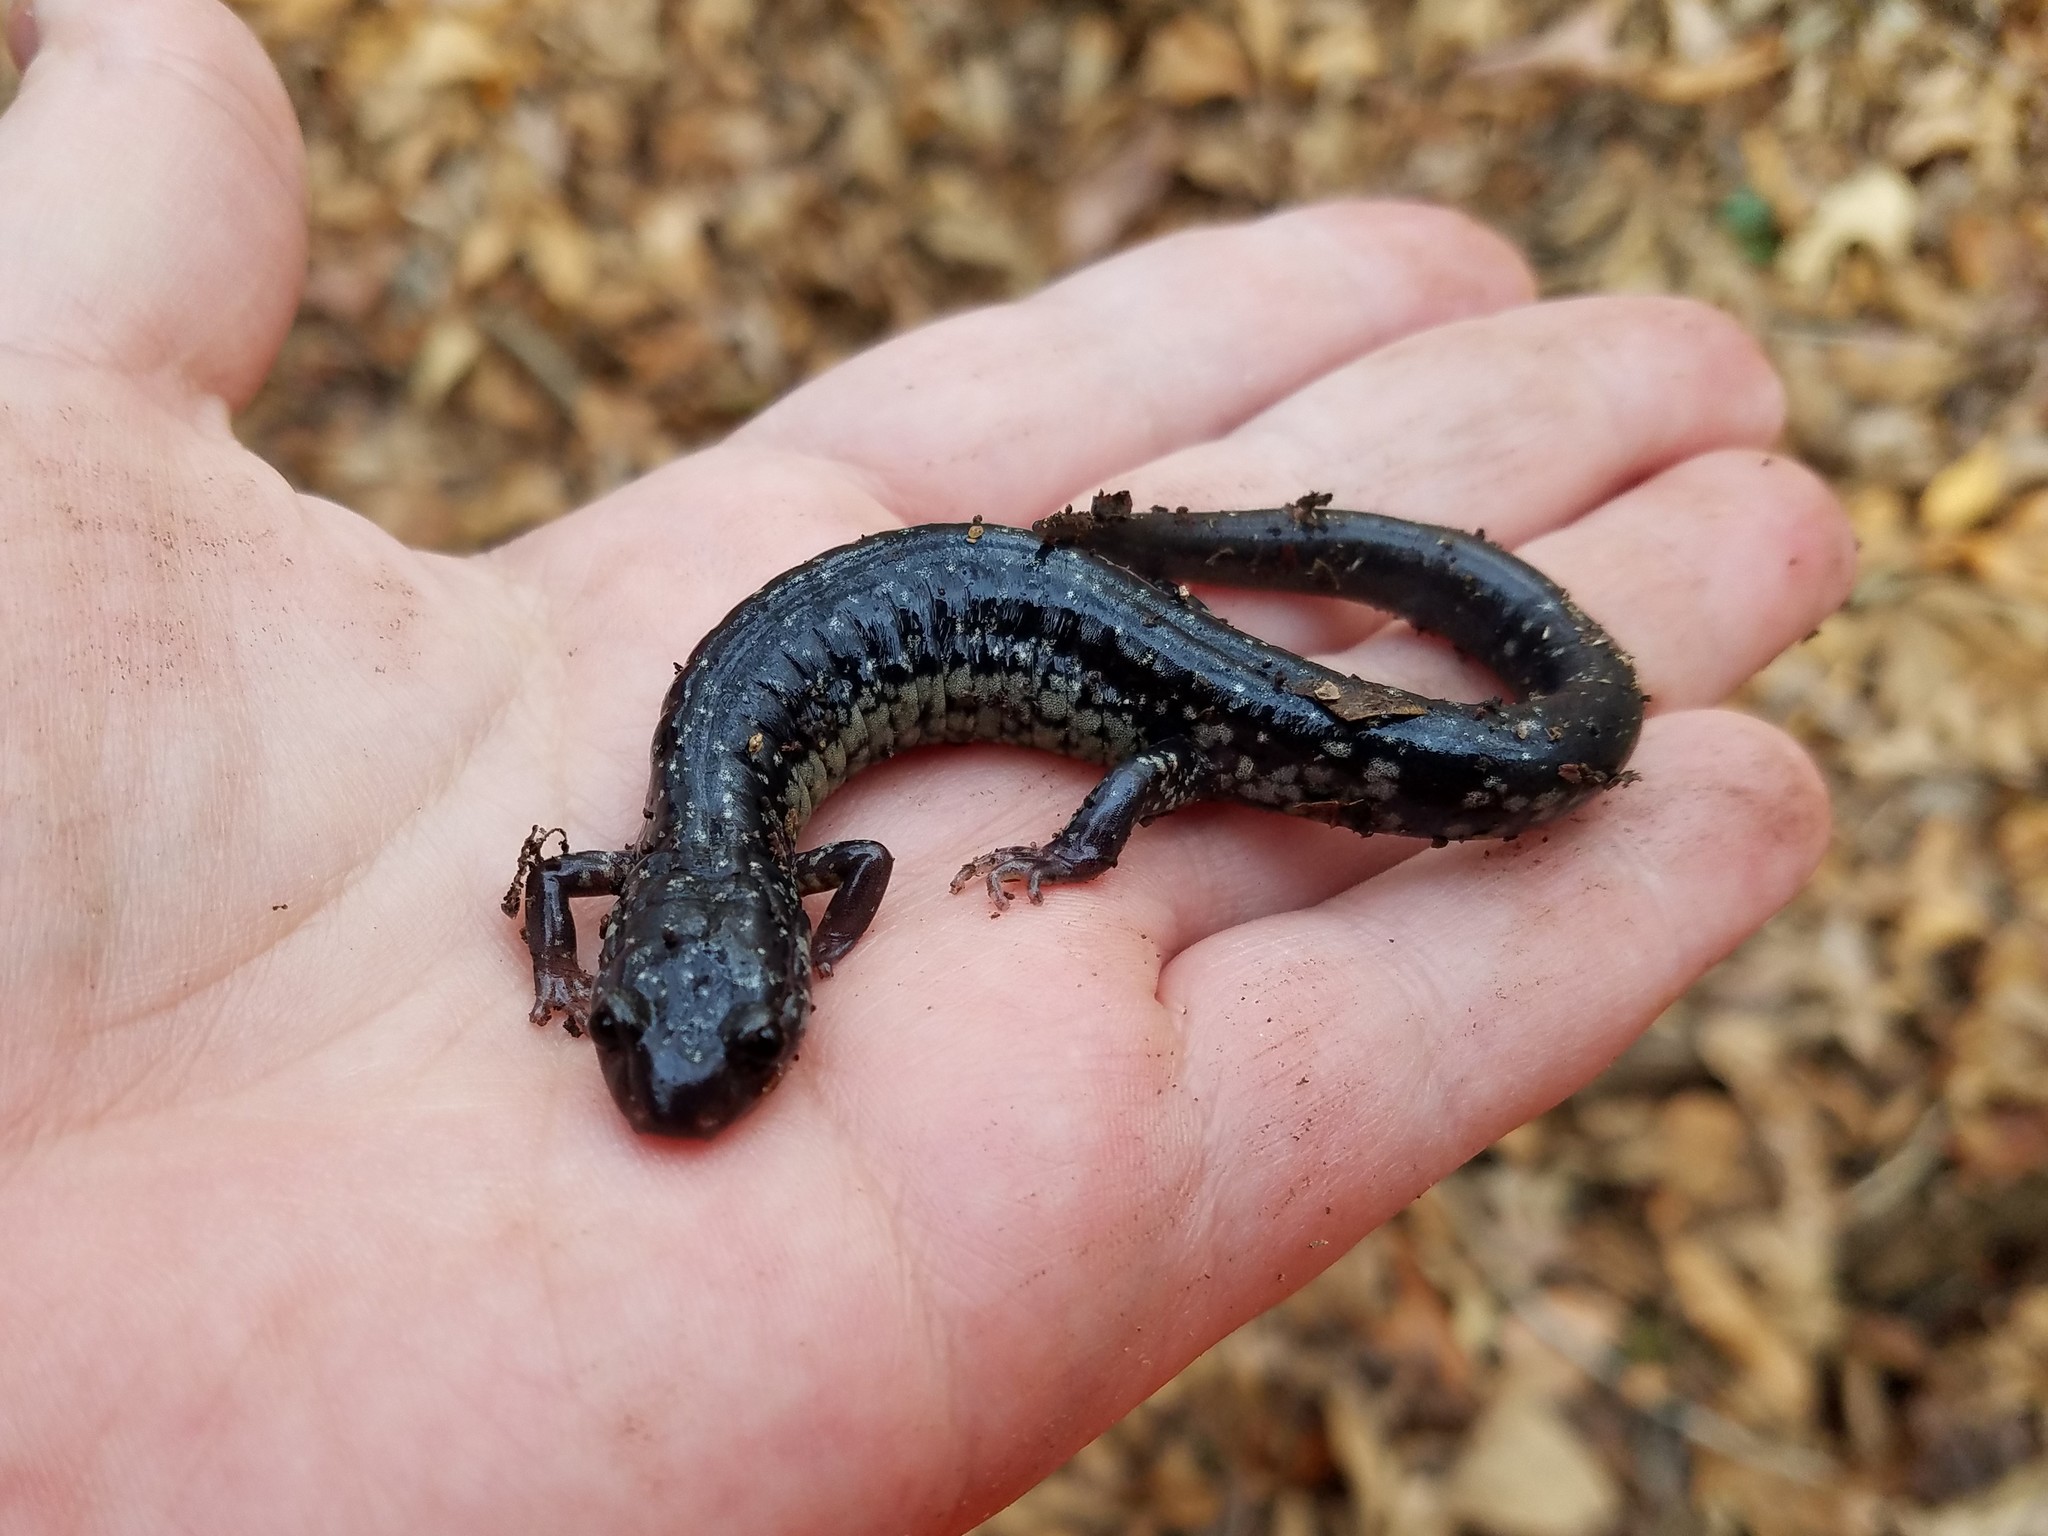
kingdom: Animalia
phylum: Chordata
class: Amphibia
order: Caudata
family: Plethodontidae
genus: Plethodon
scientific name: Plethodon
